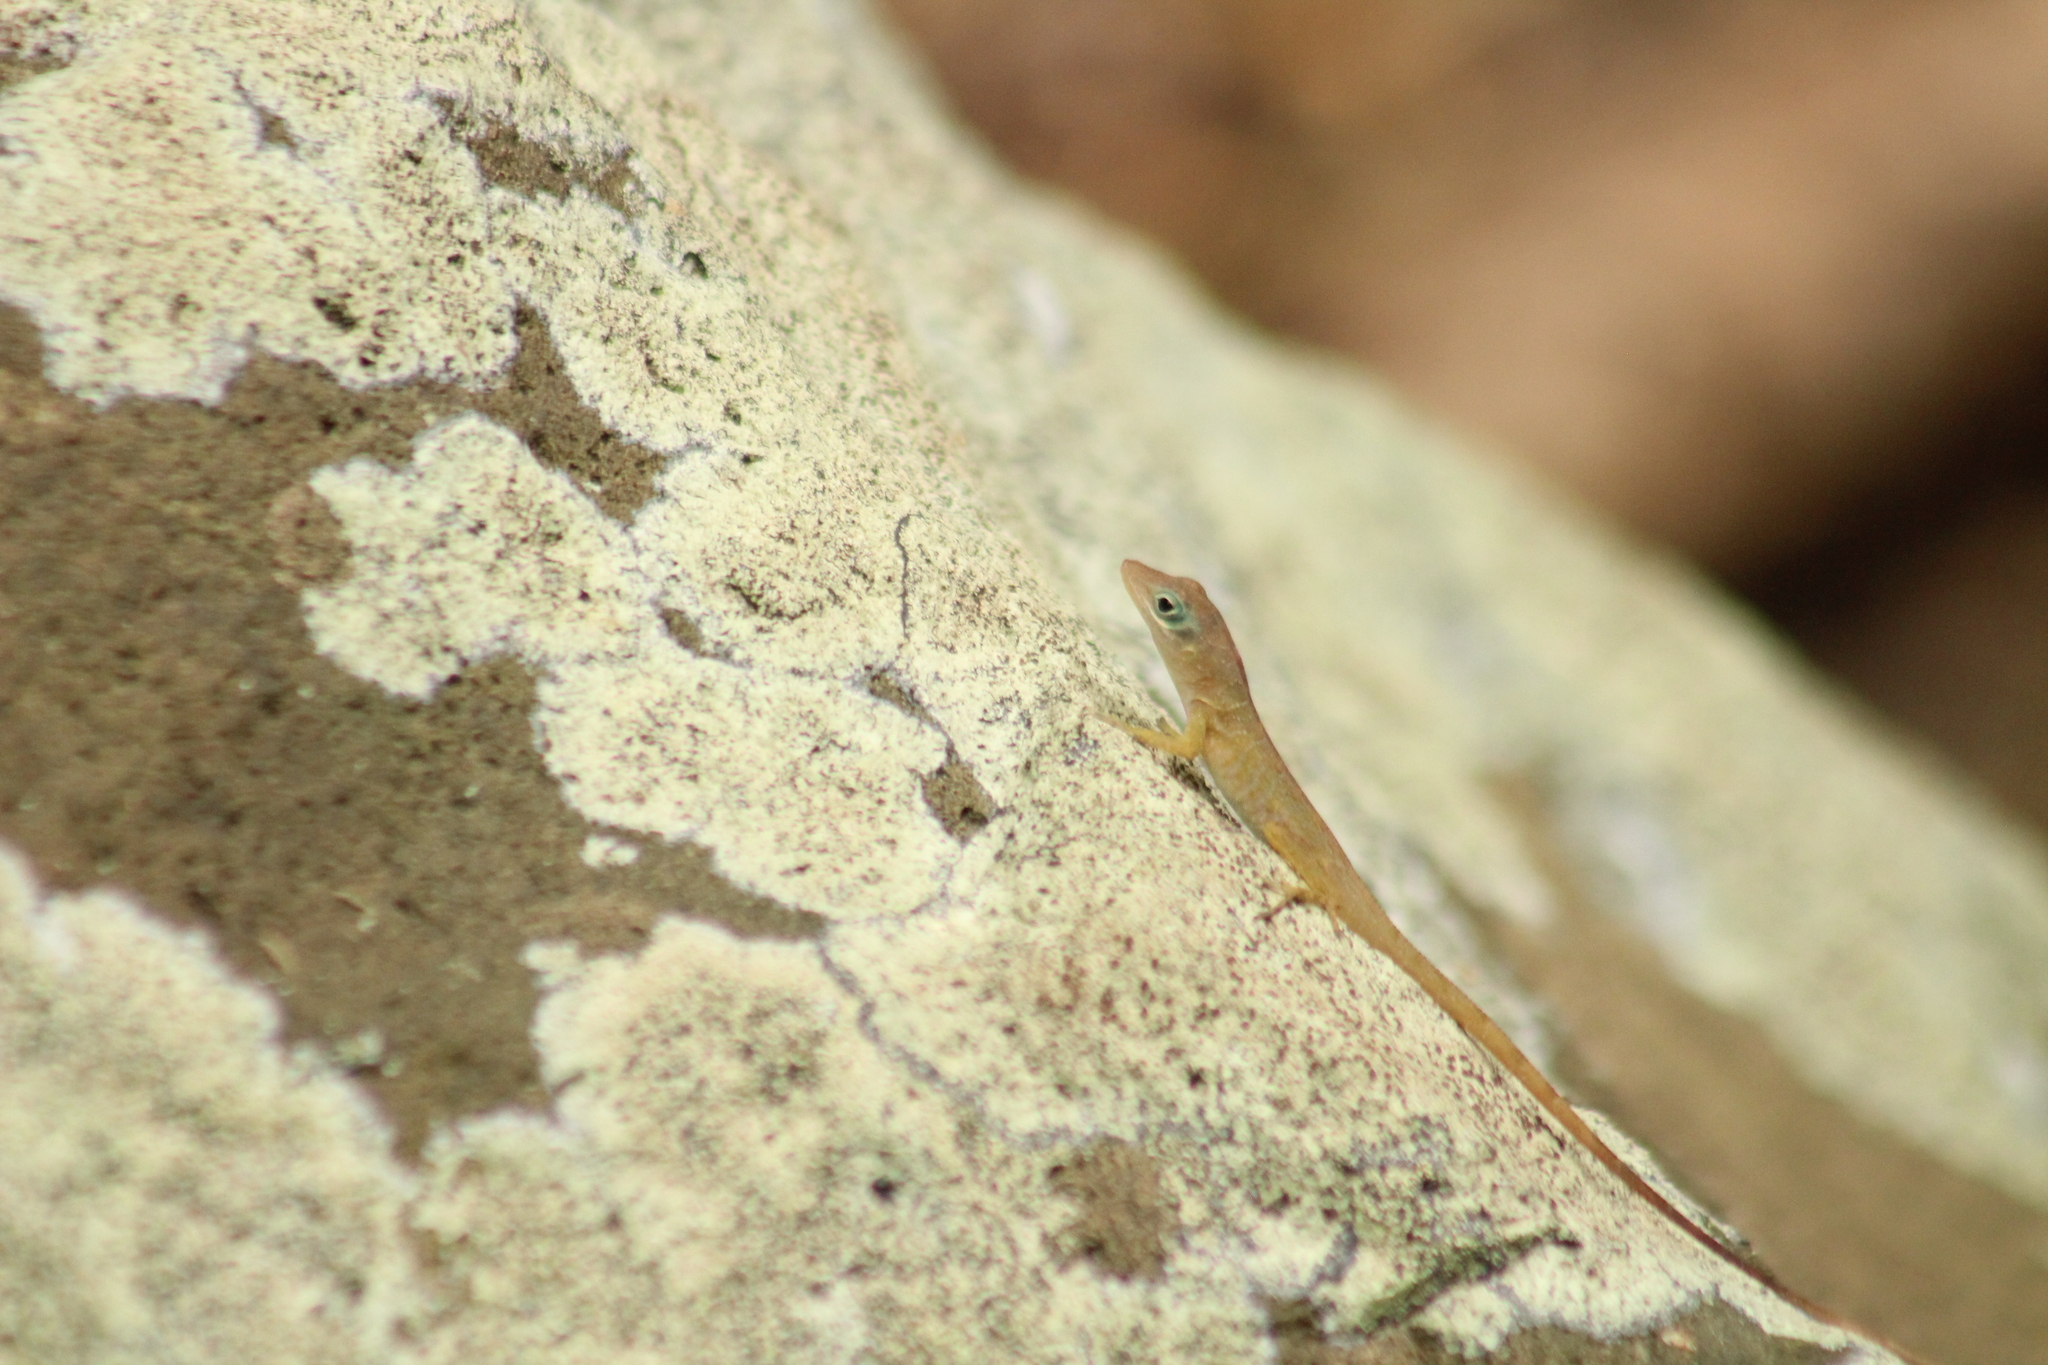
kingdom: Animalia
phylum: Chordata
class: Squamata
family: Dactyloidae
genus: Anolis
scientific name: Anolis pogus
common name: Anguilla bank bush anole
